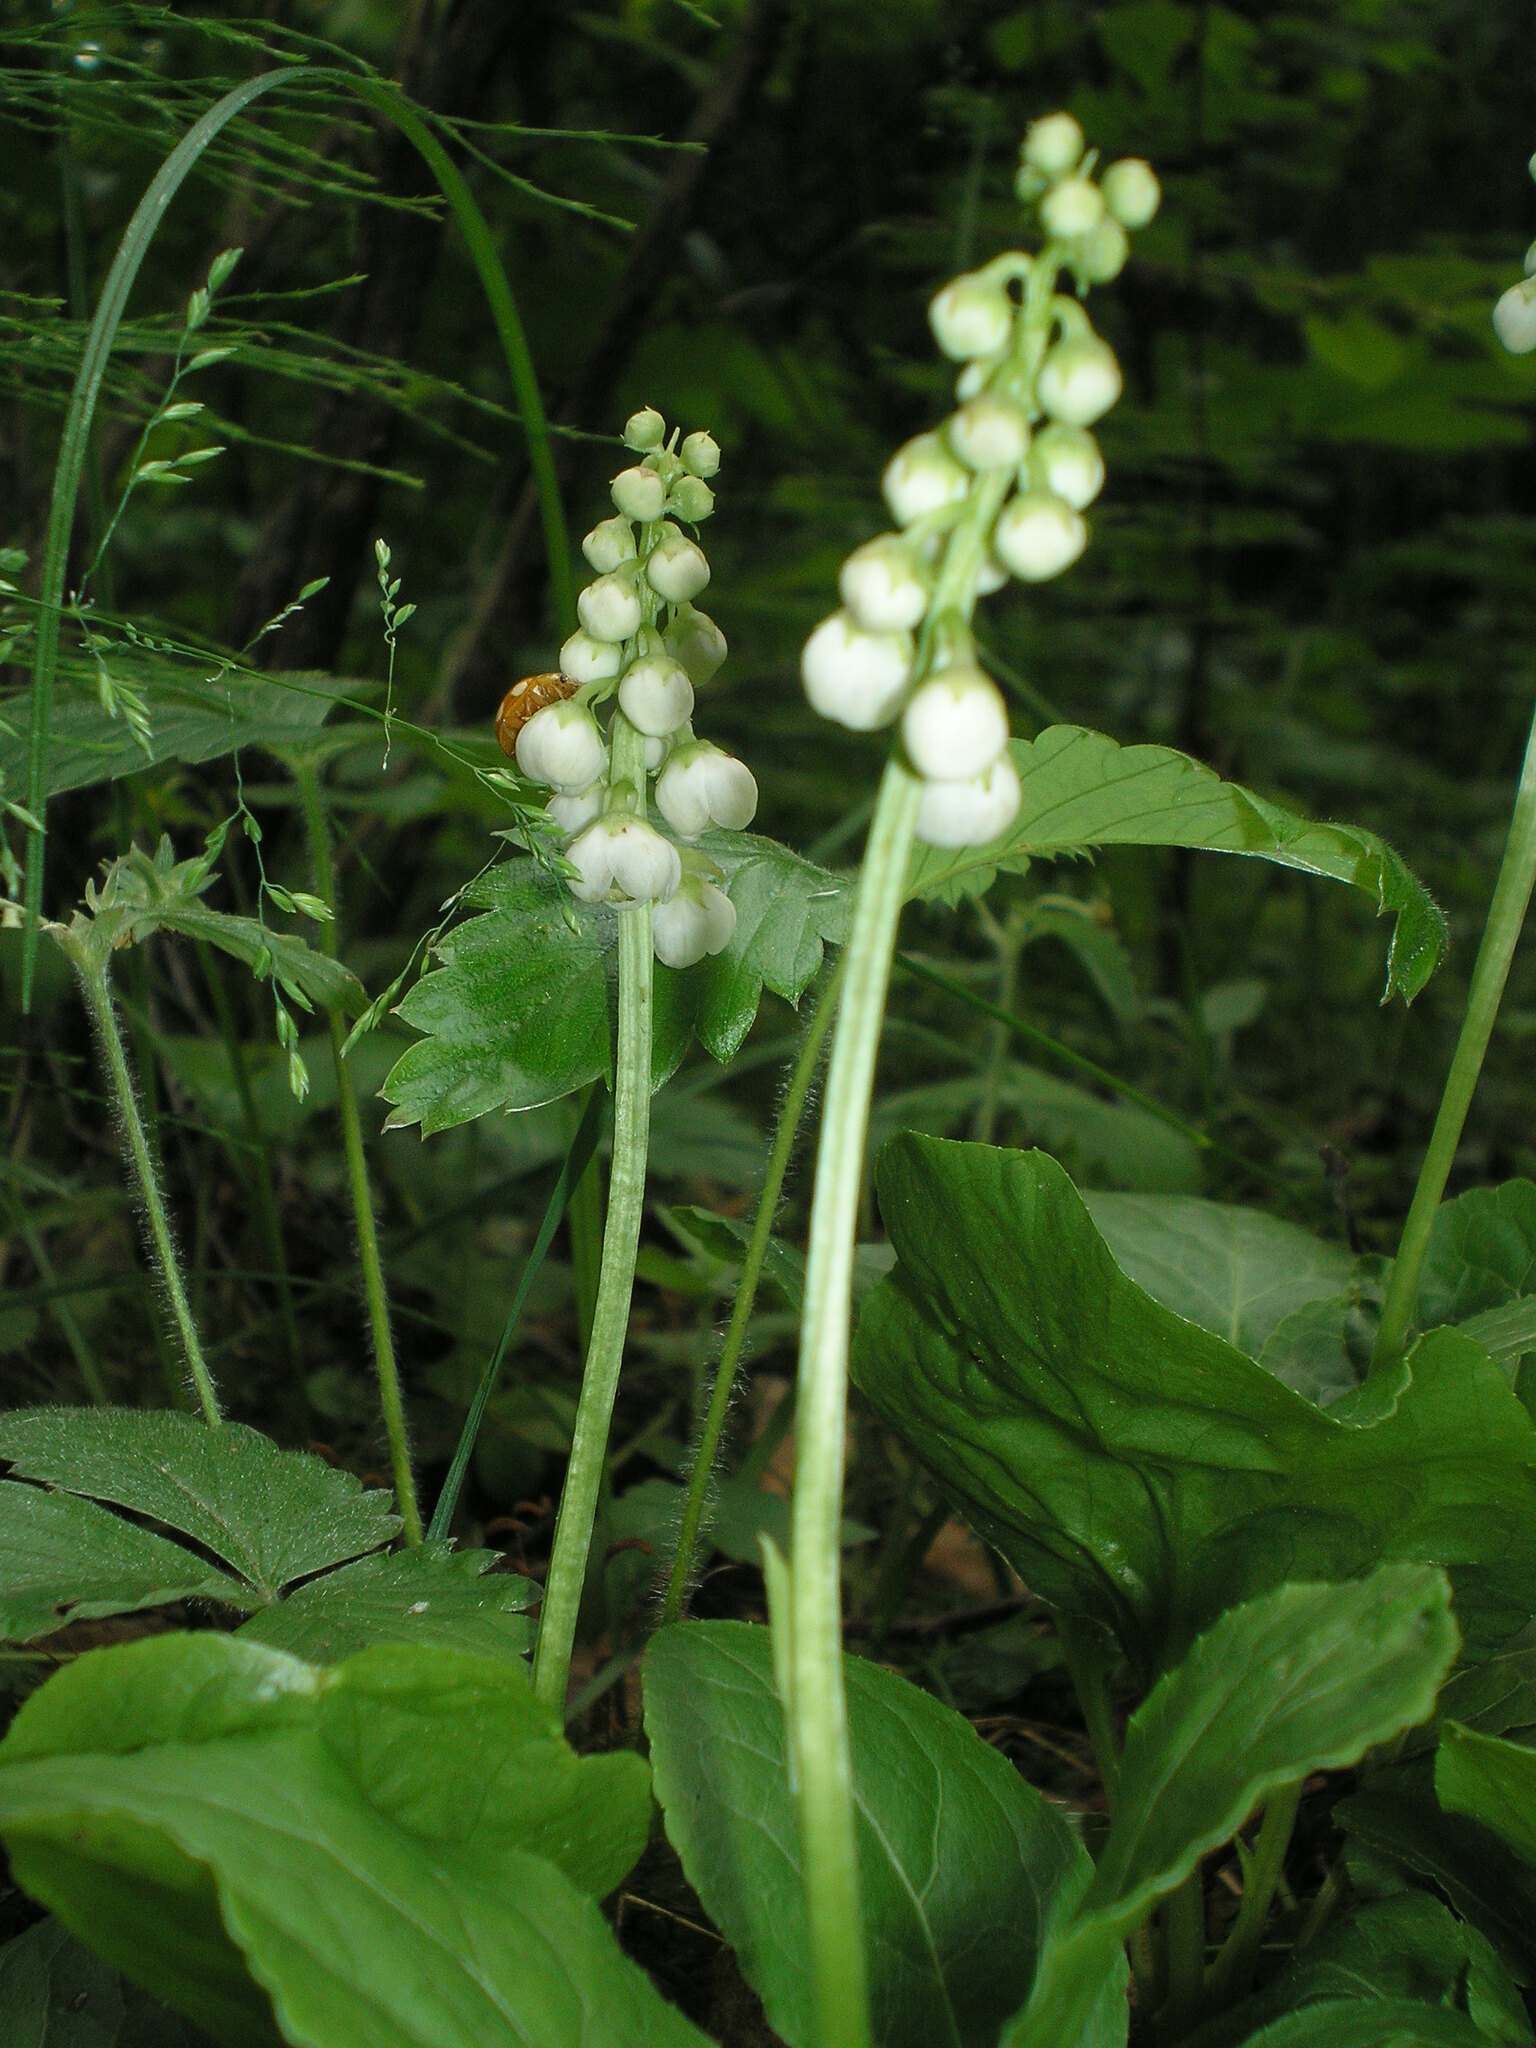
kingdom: Plantae
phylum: Tracheophyta
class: Magnoliopsida
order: Ericales
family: Ericaceae
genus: Pyrola
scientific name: Pyrola minor
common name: Common wintergreen
